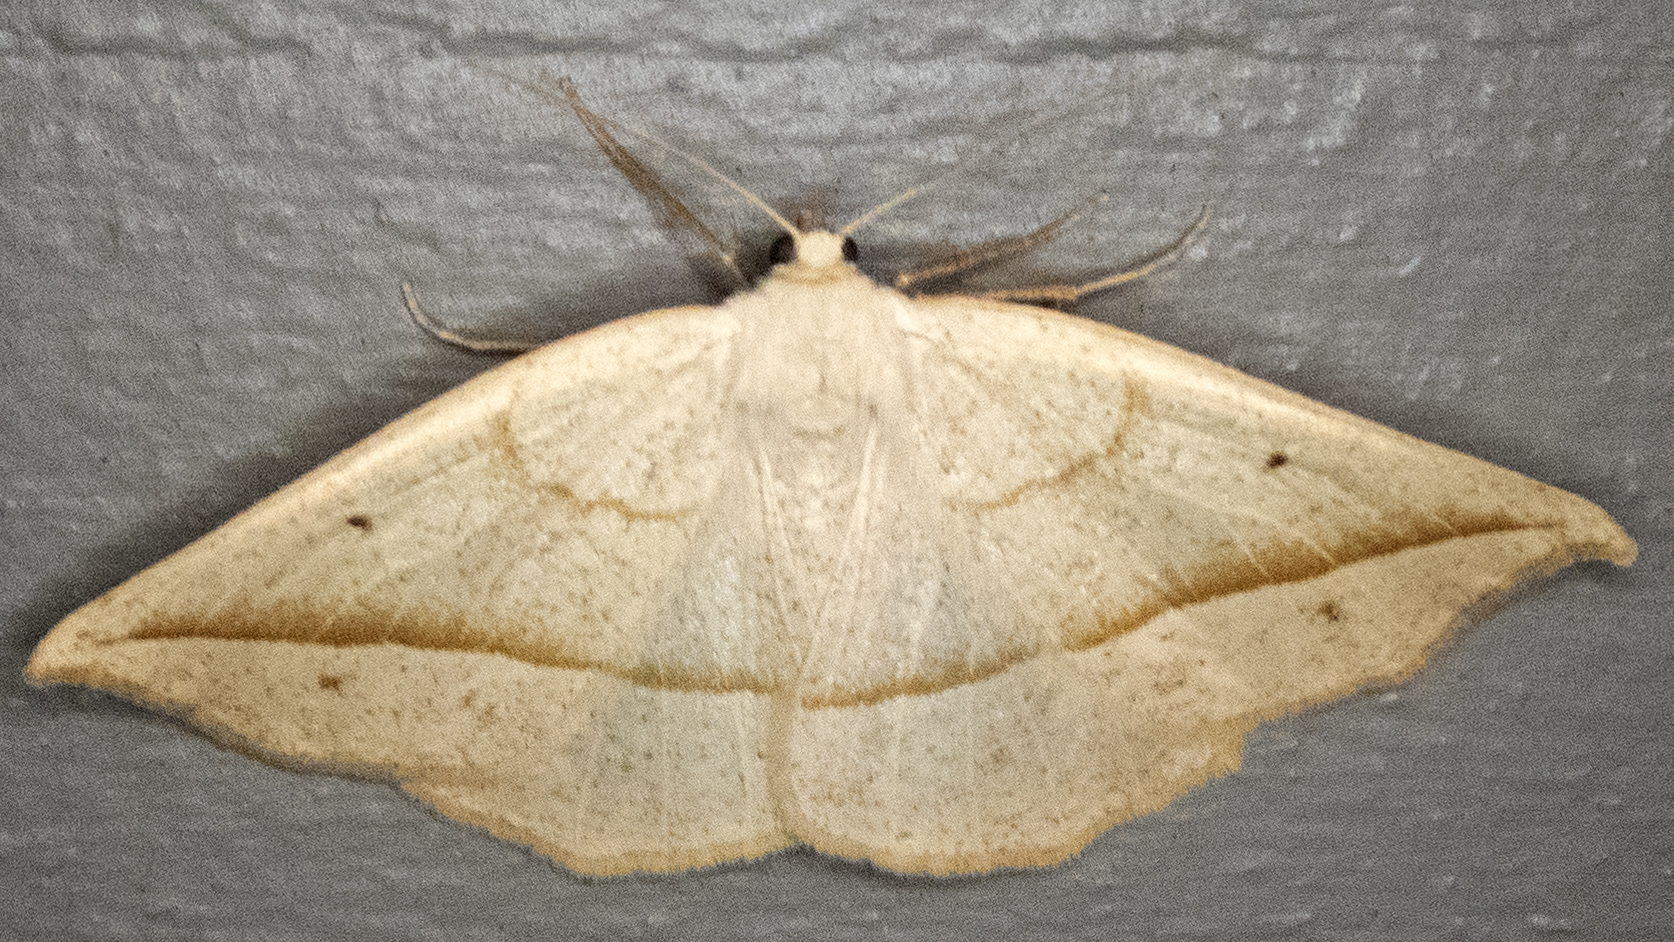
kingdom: Animalia
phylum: Arthropoda
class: Insecta
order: Lepidoptera
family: Geometridae
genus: Eusarca
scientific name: Eusarca confusaria
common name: Confused eusarca
